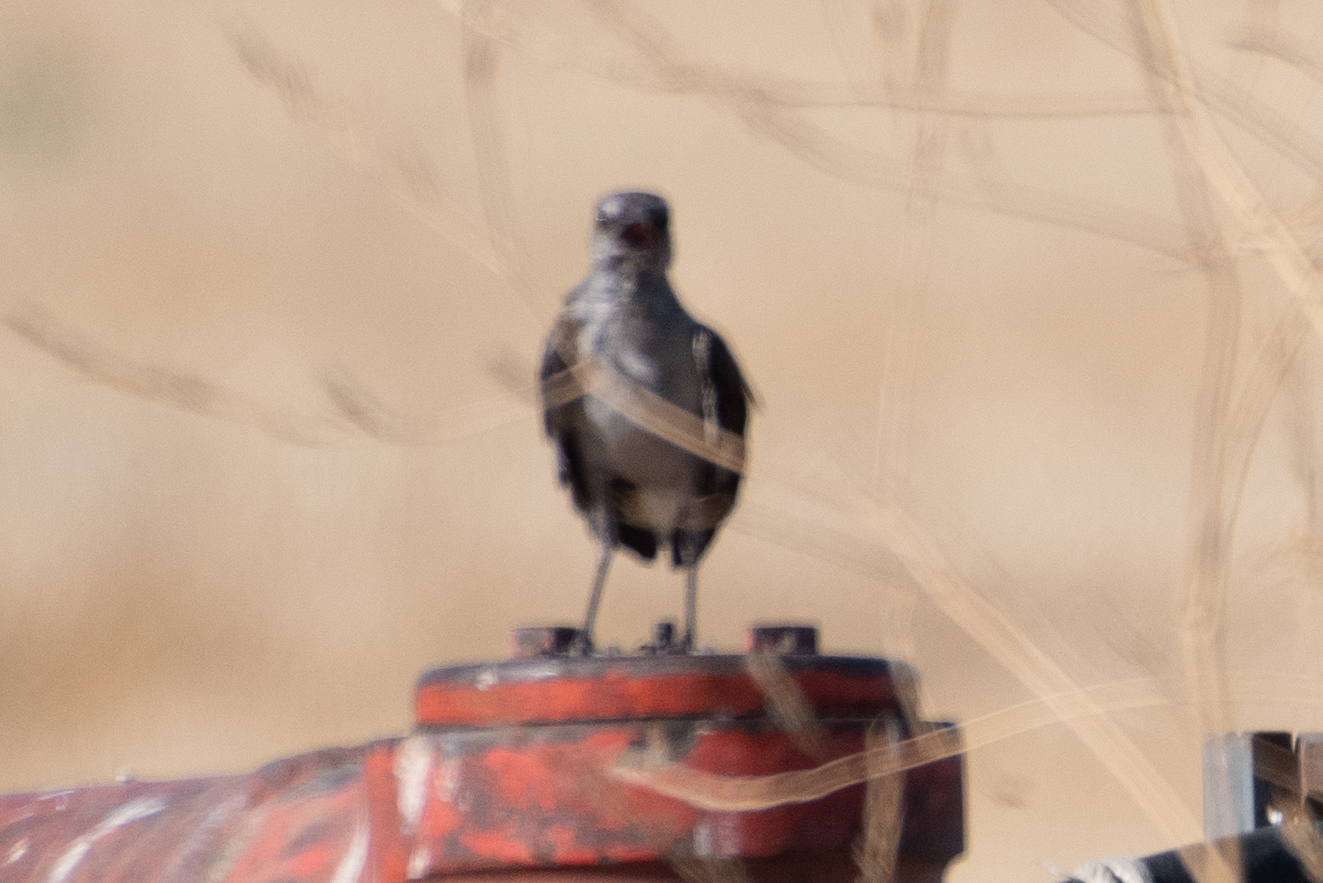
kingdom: Animalia
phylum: Chordata
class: Aves
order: Passeriformes
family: Mimidae
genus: Mimus
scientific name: Mimus polyglottos
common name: Northern mockingbird
